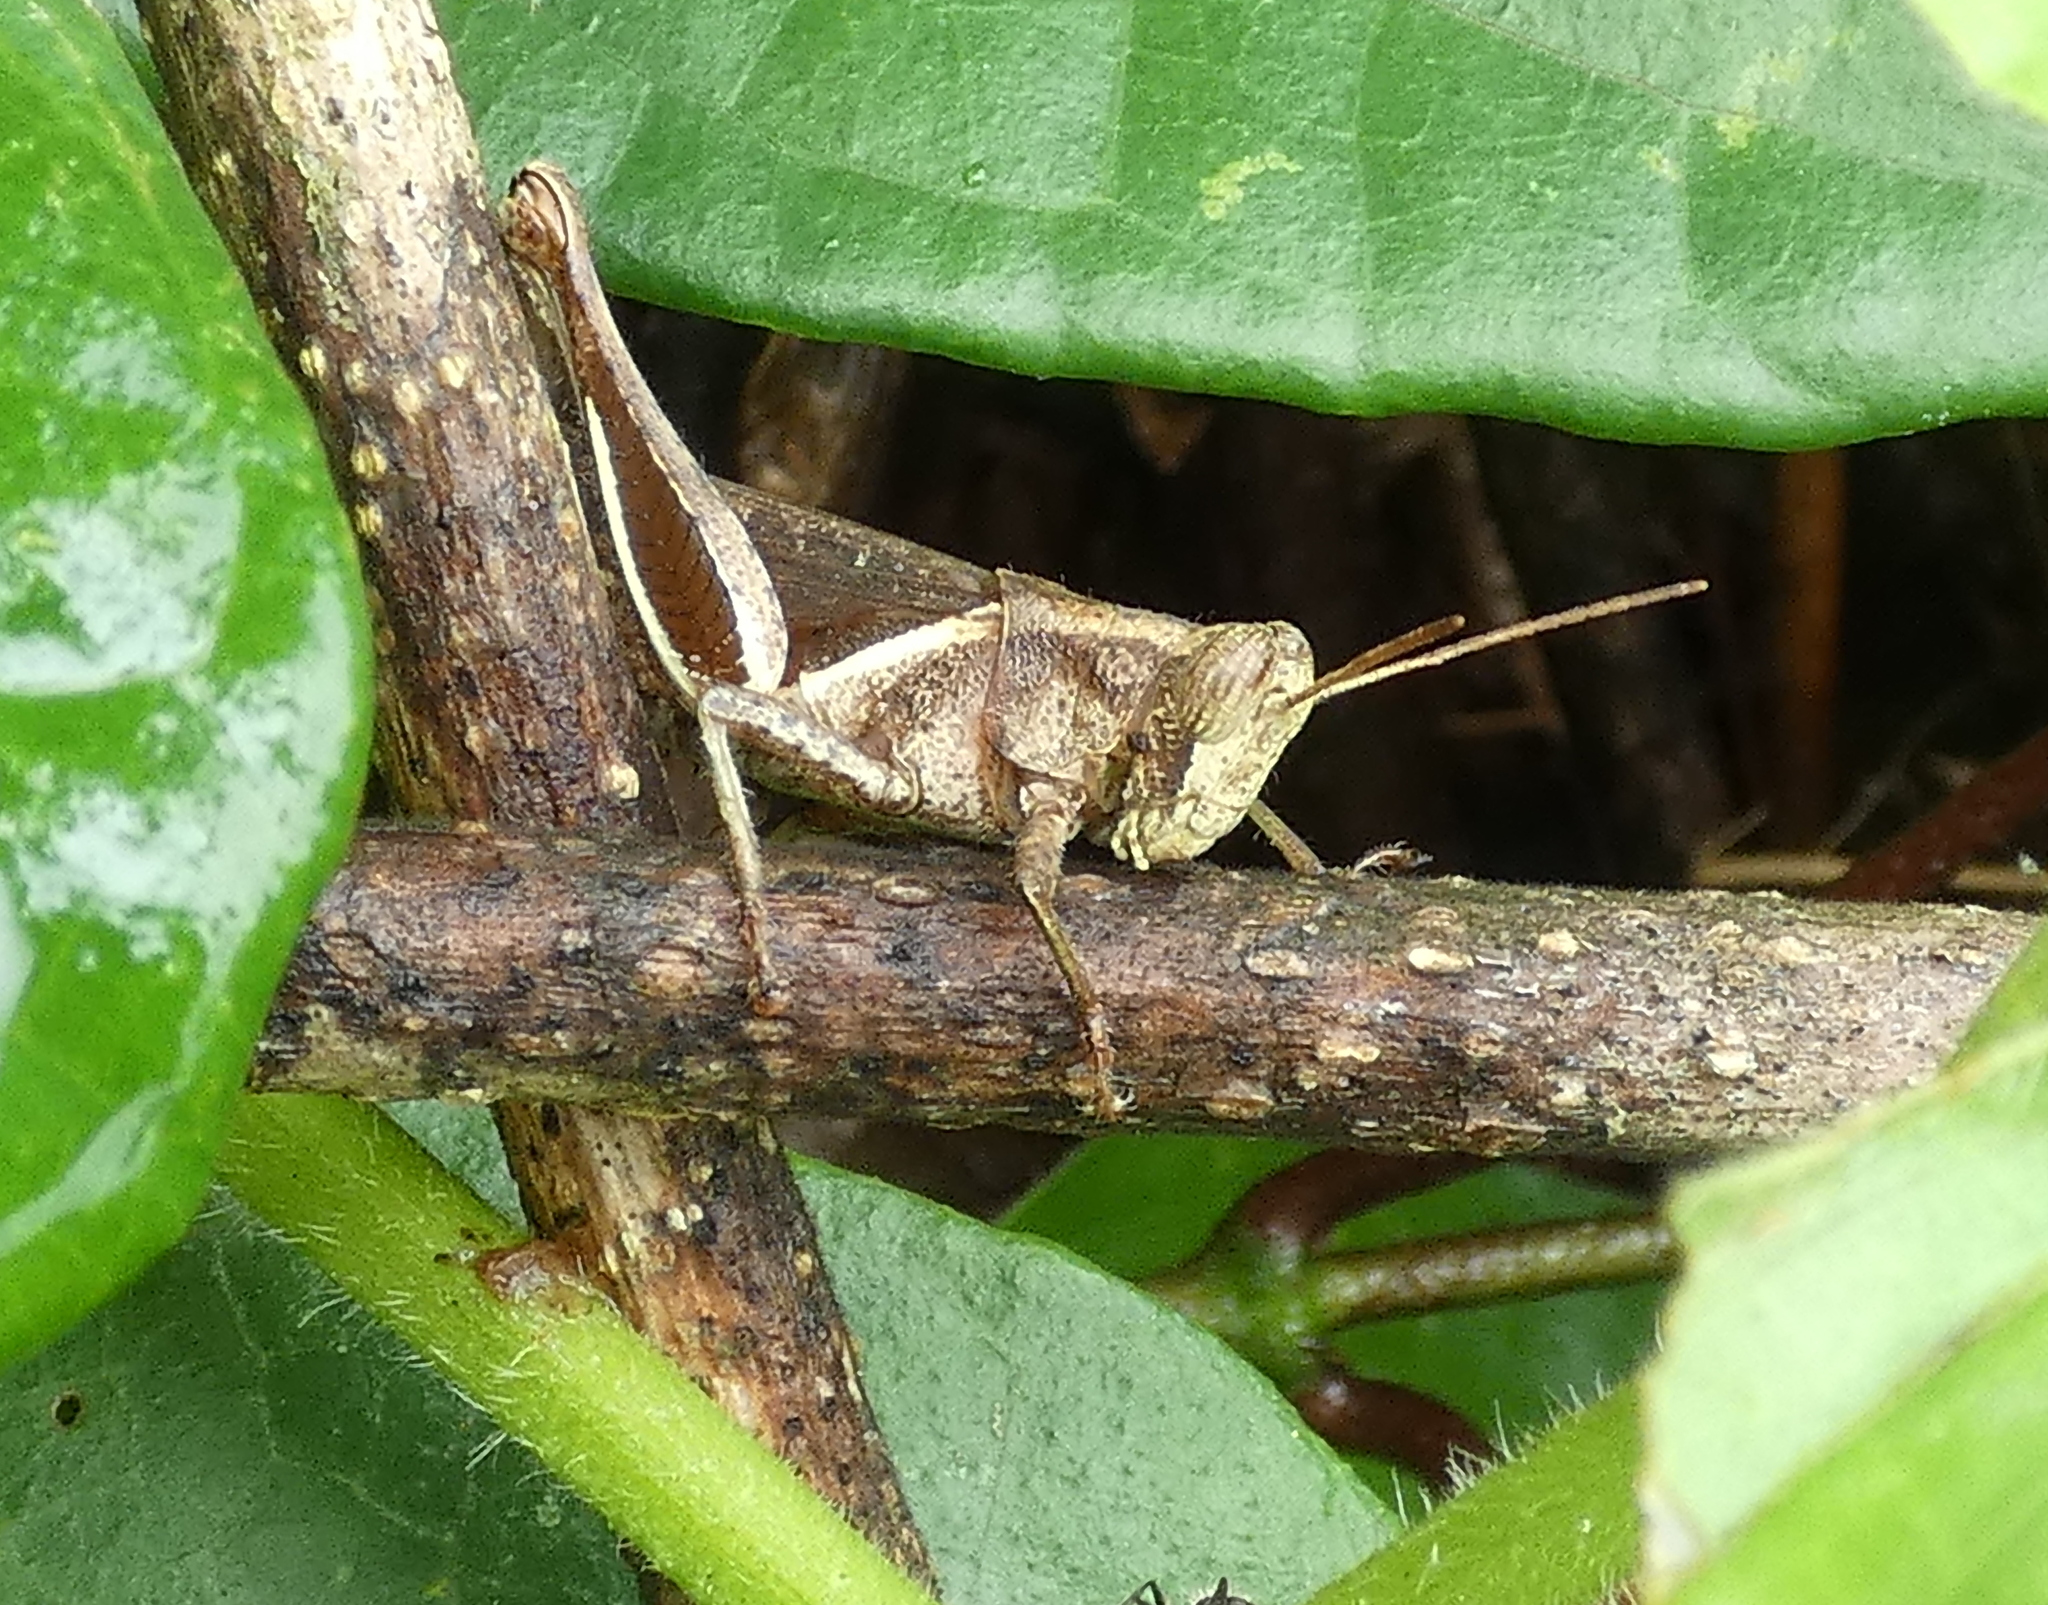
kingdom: Animalia
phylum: Arthropoda
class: Insecta
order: Orthoptera
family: Acrididae
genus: Abracris
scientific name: Abracris flavolineata
